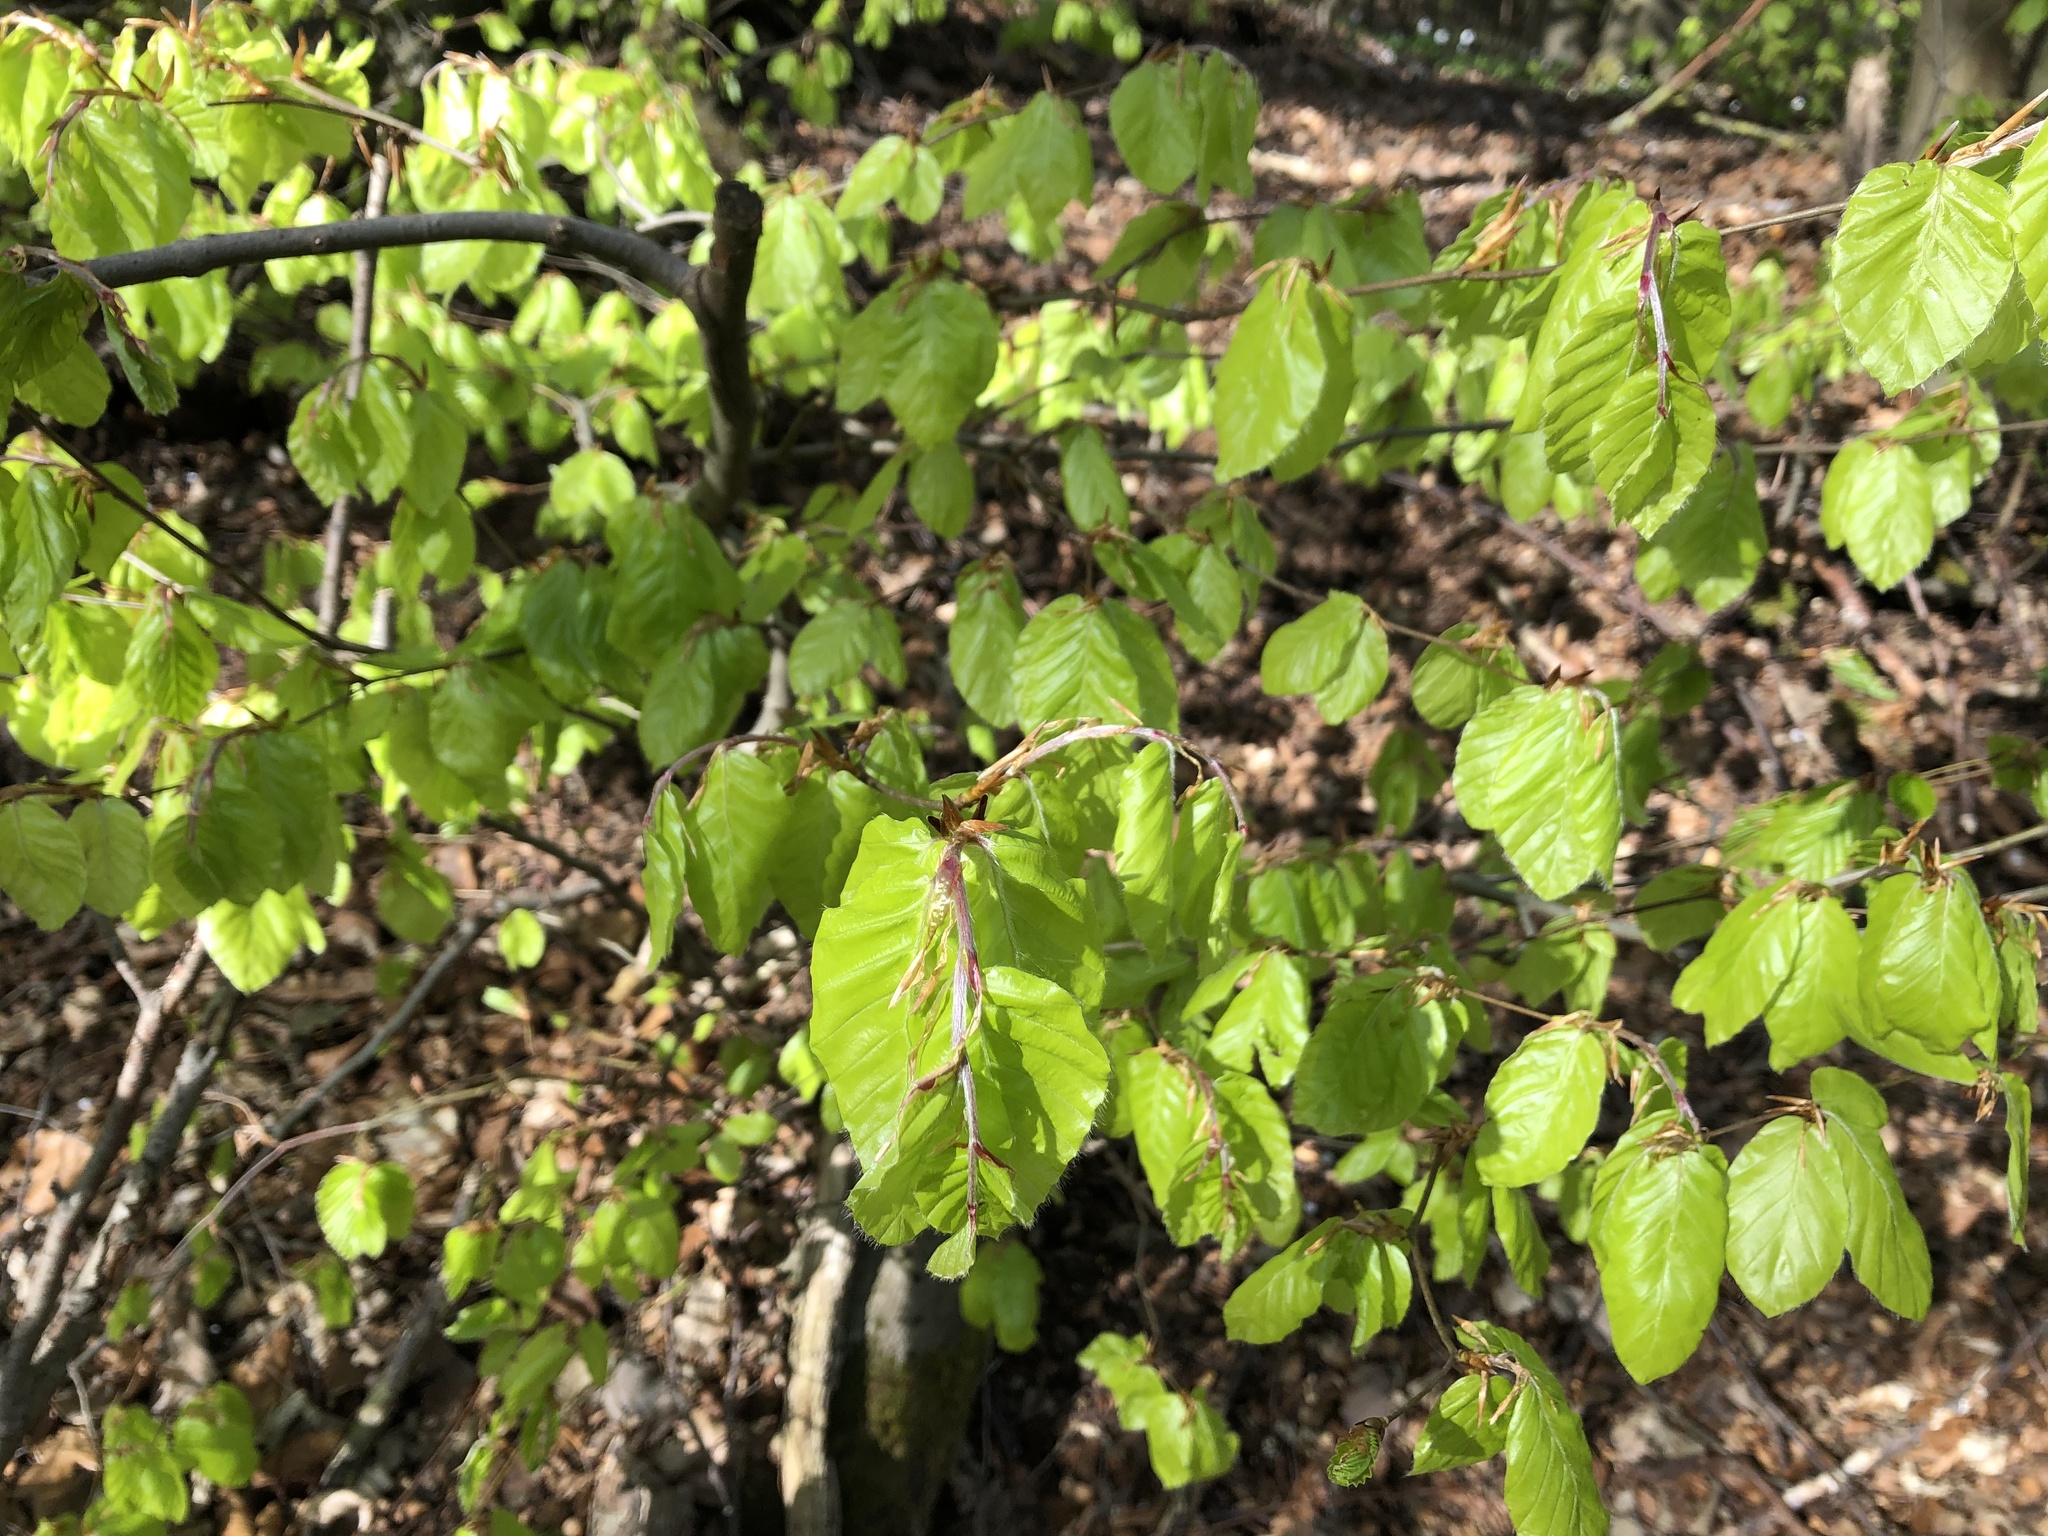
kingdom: Plantae
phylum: Tracheophyta
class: Magnoliopsida
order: Fagales
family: Fagaceae
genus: Fagus
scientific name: Fagus sylvatica
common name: Beech
